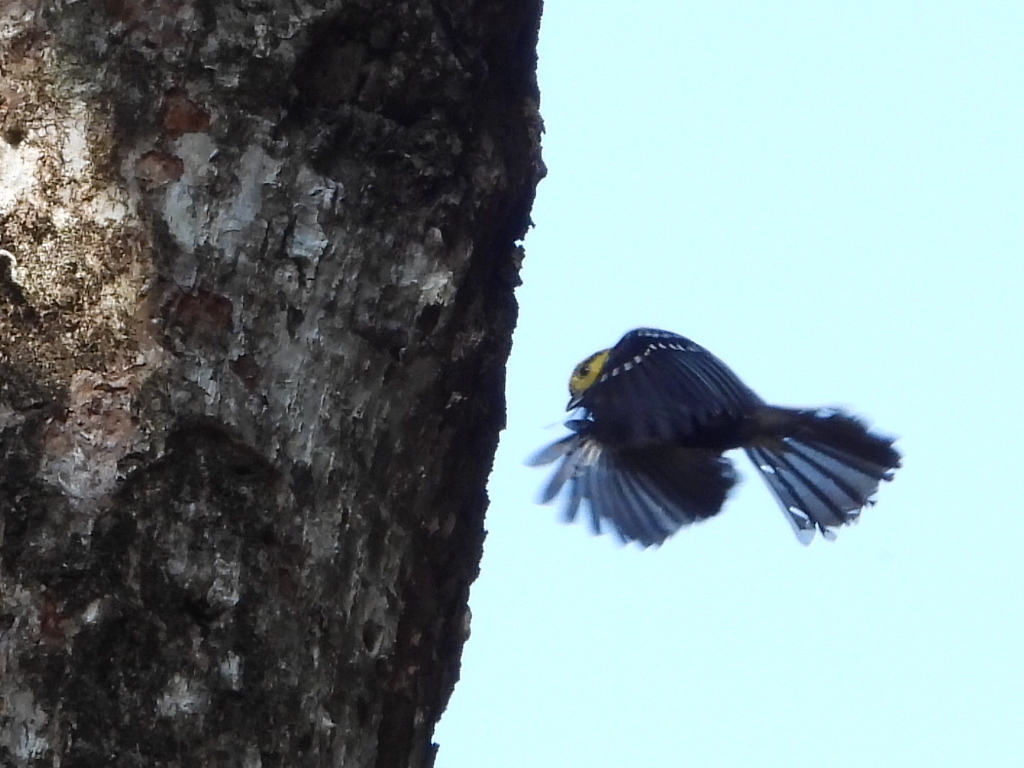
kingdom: Animalia
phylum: Chordata
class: Aves
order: Passeriformes
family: Paridae
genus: Parus
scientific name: Parus spilonotus
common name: Yellow-cheeked tit
